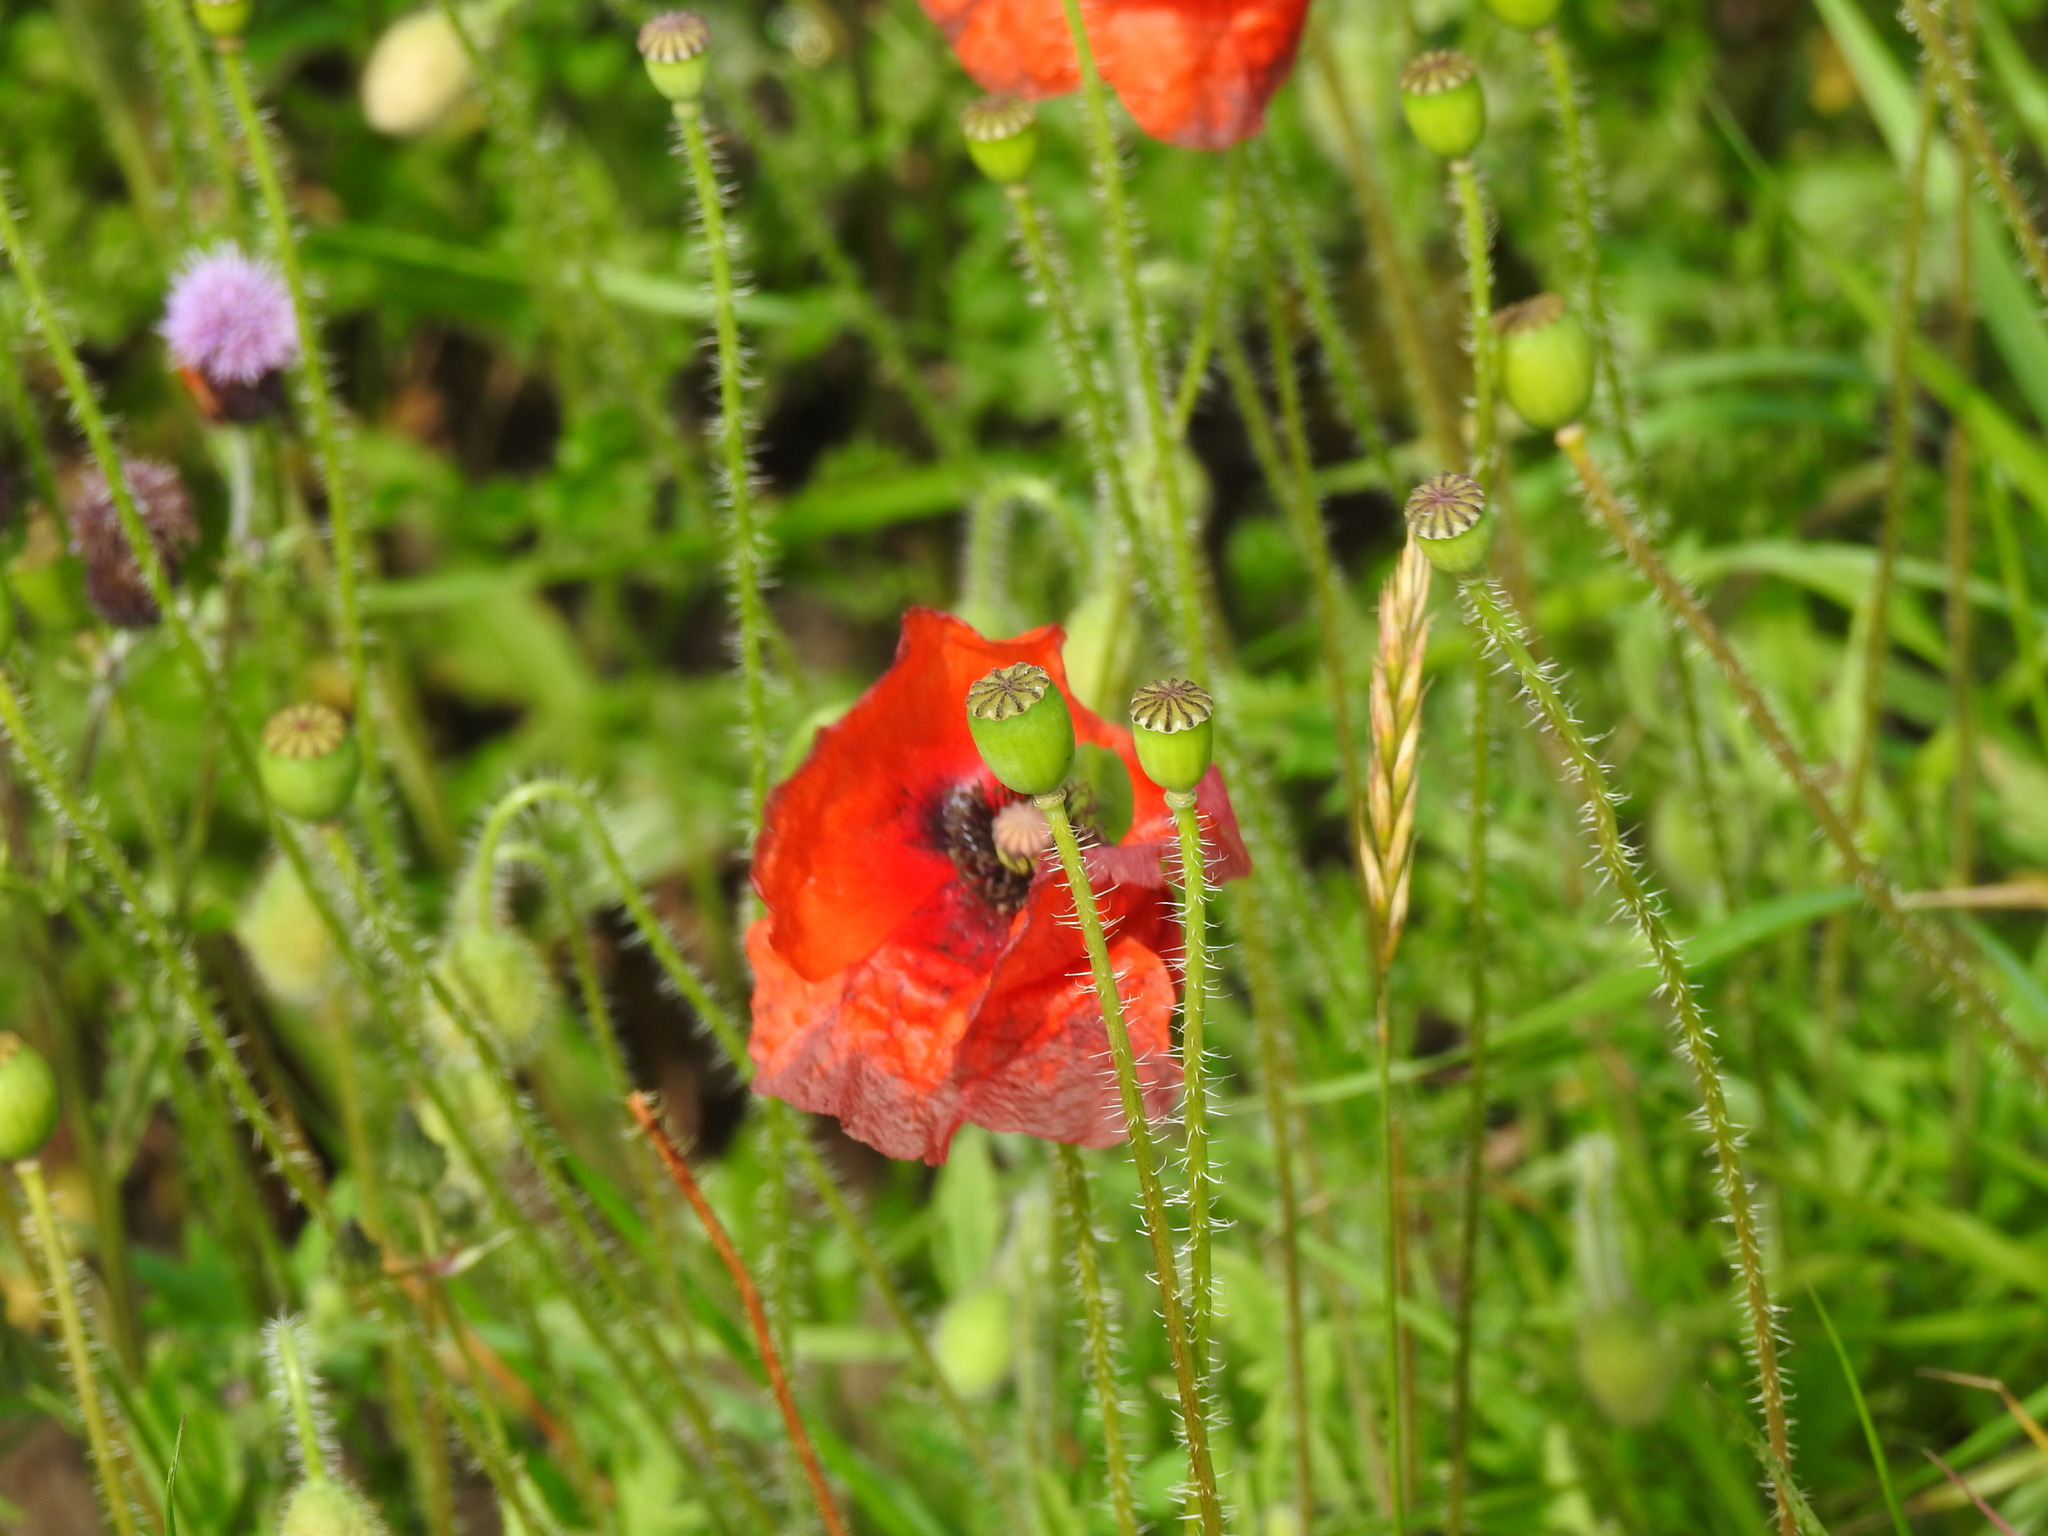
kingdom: Plantae
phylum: Tracheophyta
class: Magnoliopsida
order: Ranunculales
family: Papaveraceae
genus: Papaver
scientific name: Papaver rhoeas
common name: Corn poppy
